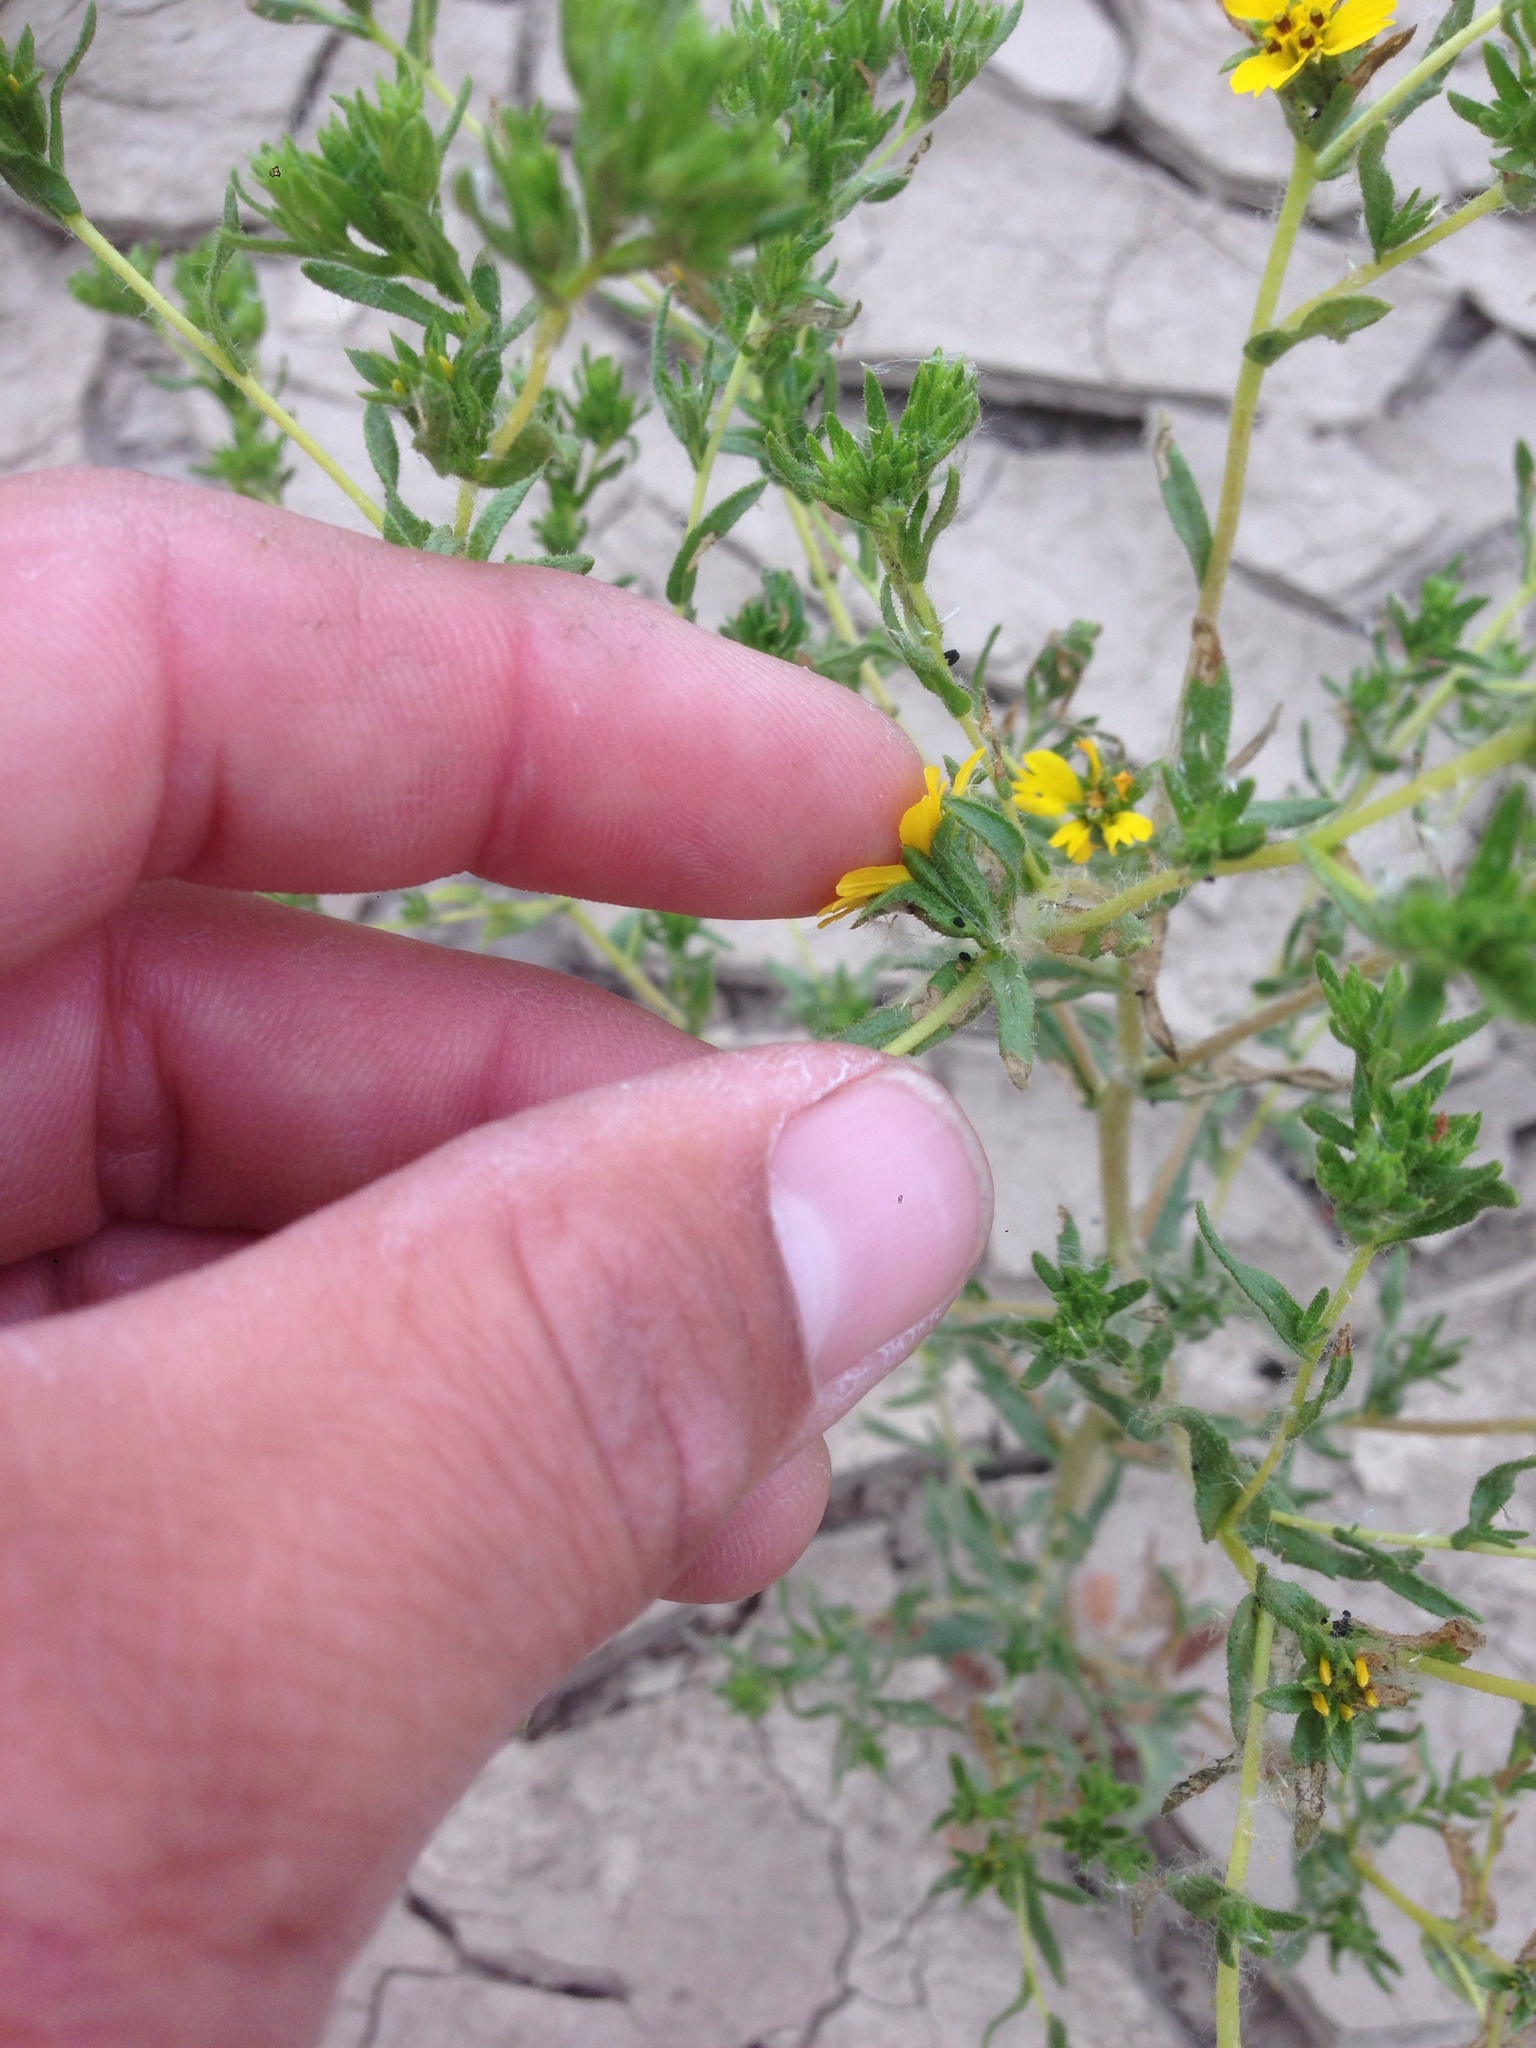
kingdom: Plantae
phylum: Tracheophyta
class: Magnoliopsida
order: Asterales
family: Asteraceae
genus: Deinandra
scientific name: Deinandra fasciculata
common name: Clustered tarweed
